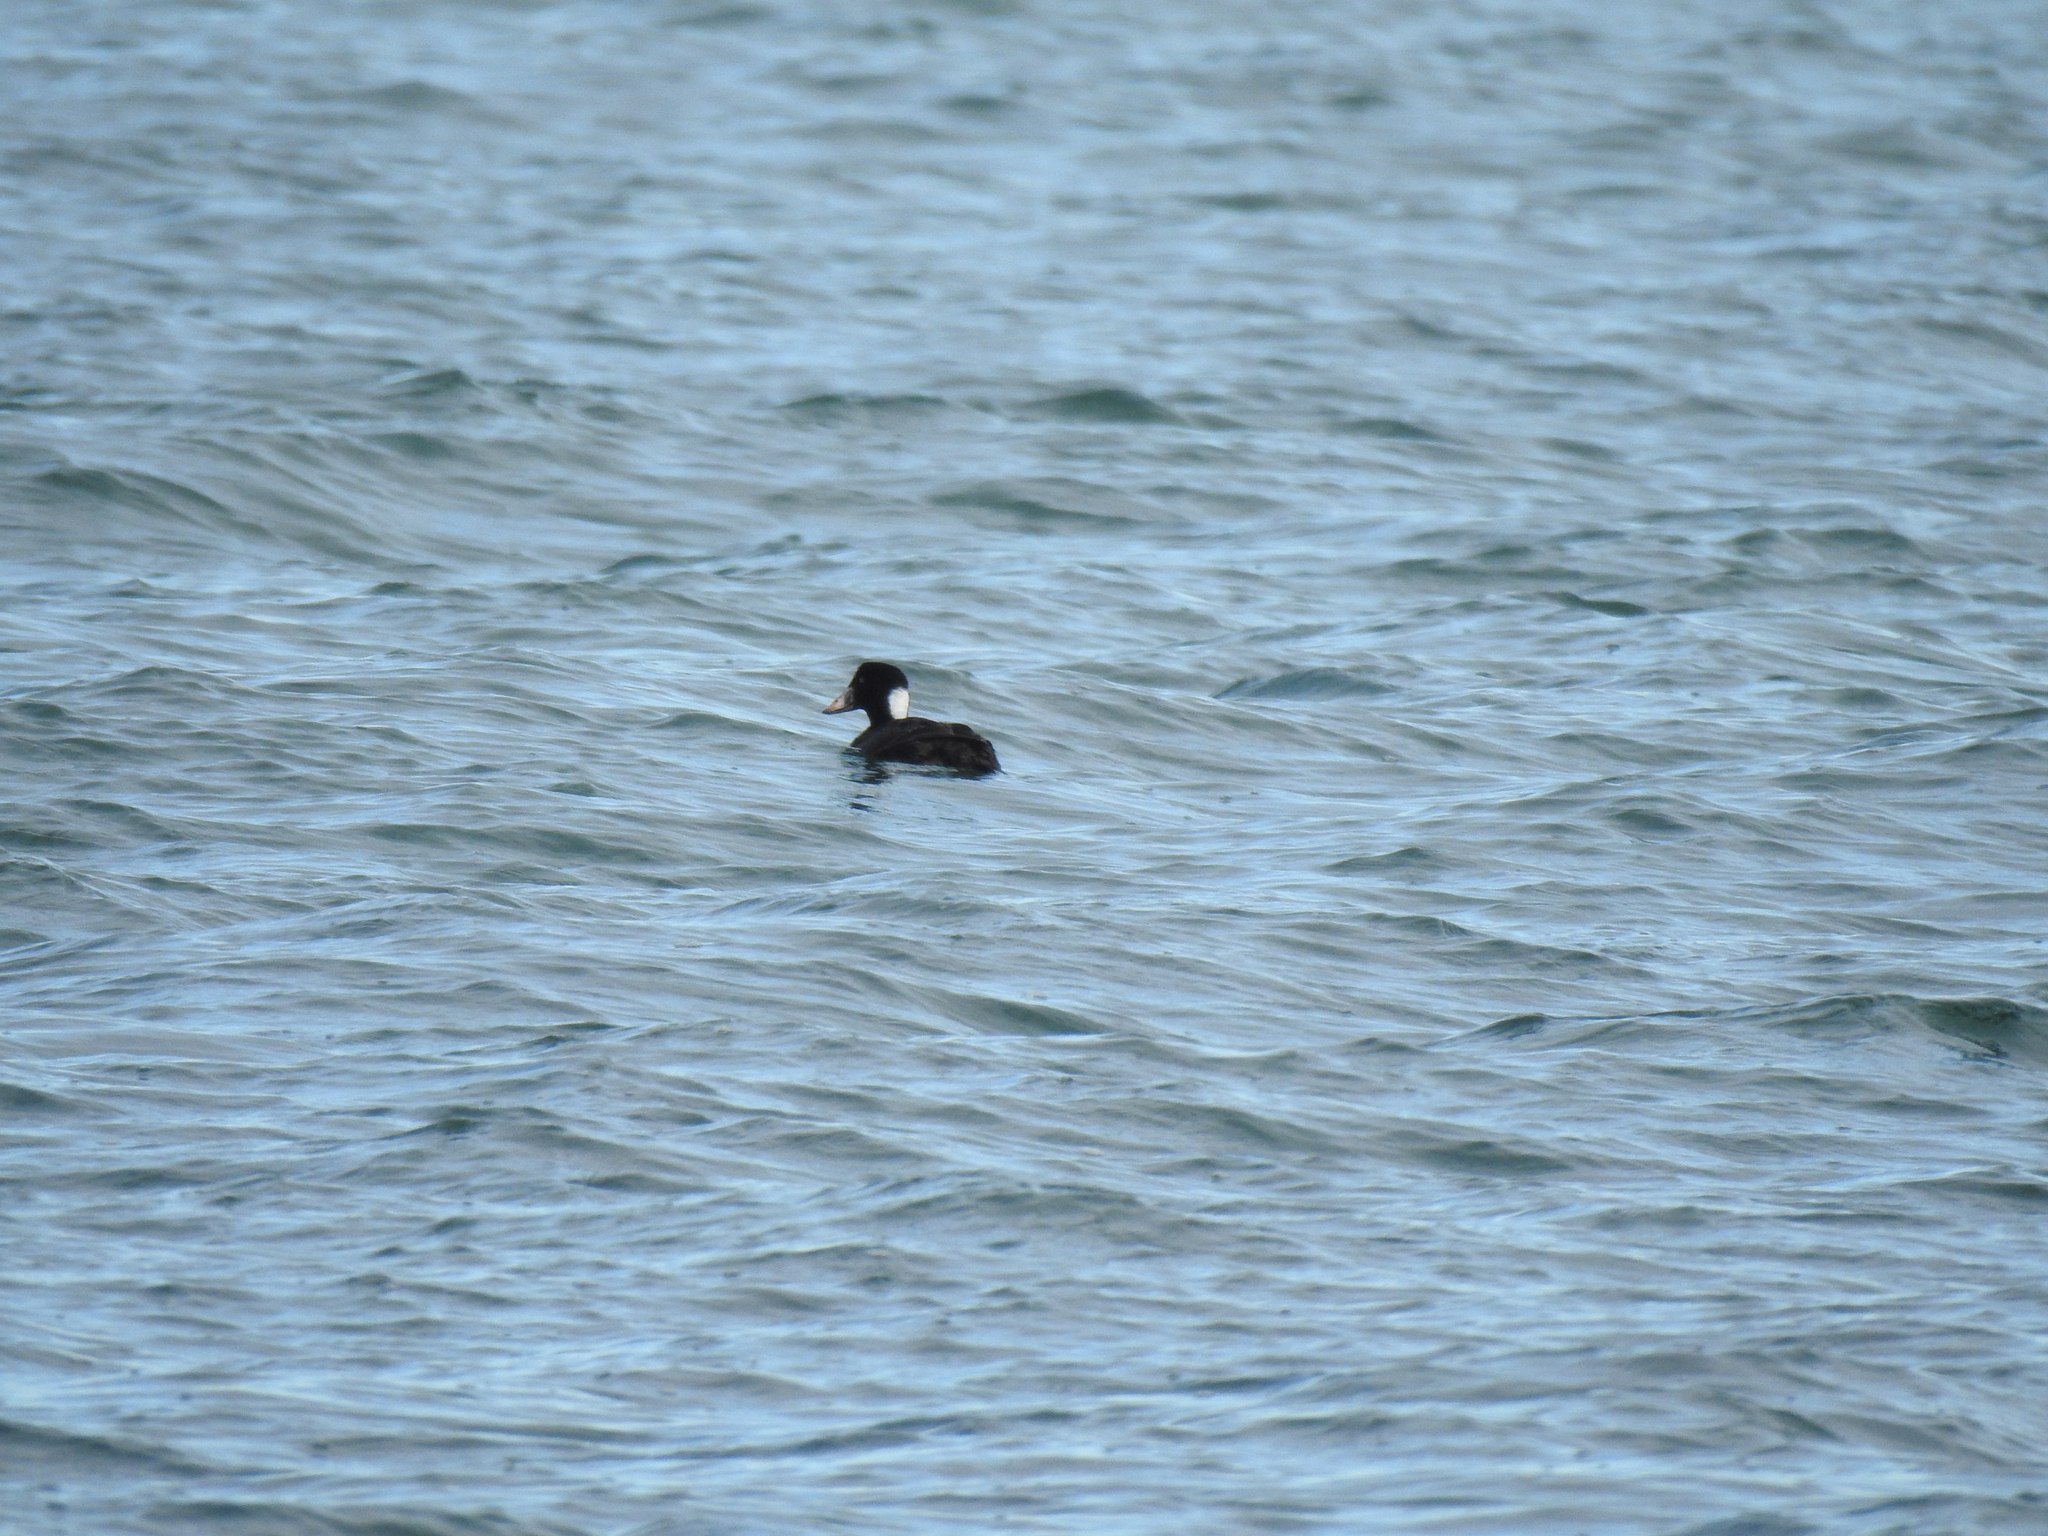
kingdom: Animalia
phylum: Chordata
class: Aves
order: Anseriformes
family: Anatidae
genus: Melanitta
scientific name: Melanitta perspicillata
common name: Surf scoter
